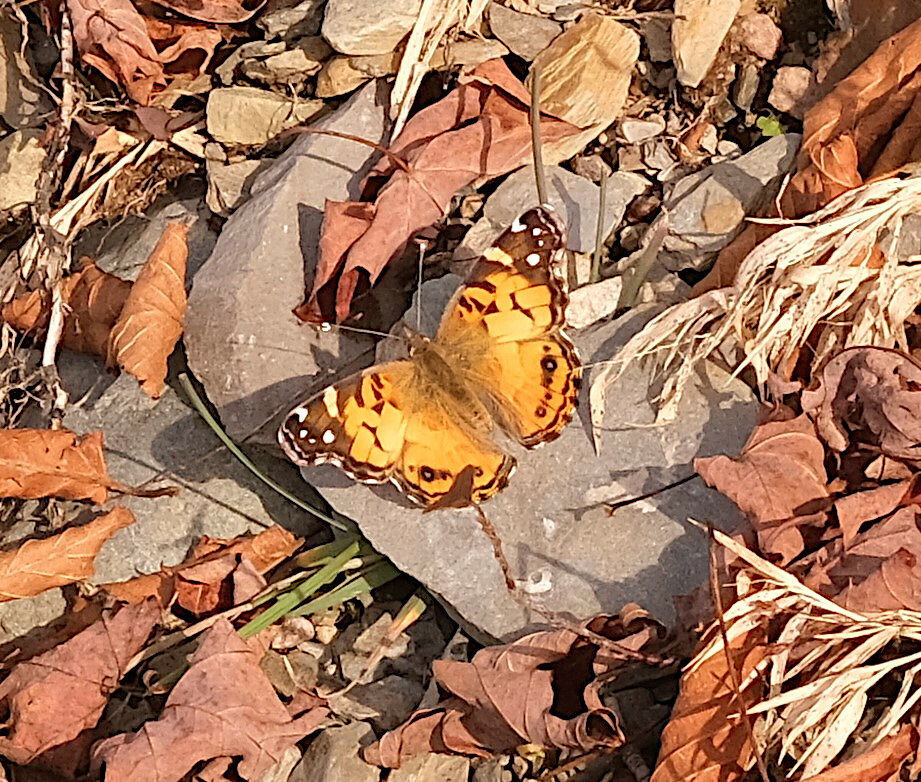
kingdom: Animalia
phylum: Arthropoda
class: Insecta
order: Lepidoptera
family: Nymphalidae
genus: Vanessa
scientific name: Vanessa virginiensis
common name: American lady
